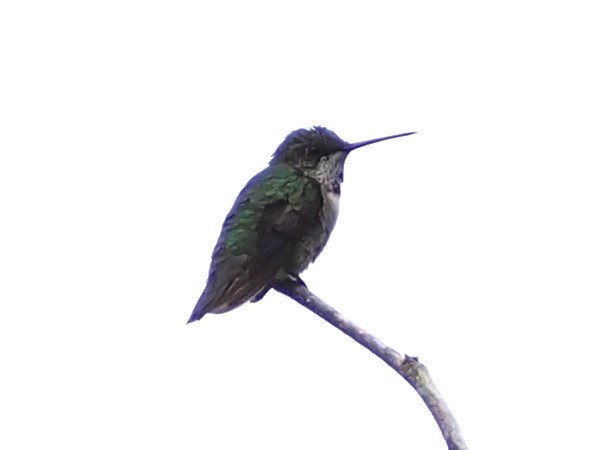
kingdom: Animalia
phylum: Chordata
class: Aves
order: Apodiformes
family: Trochilidae
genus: Archilochus
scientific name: Archilochus colubris
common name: Ruby-throated hummingbird
